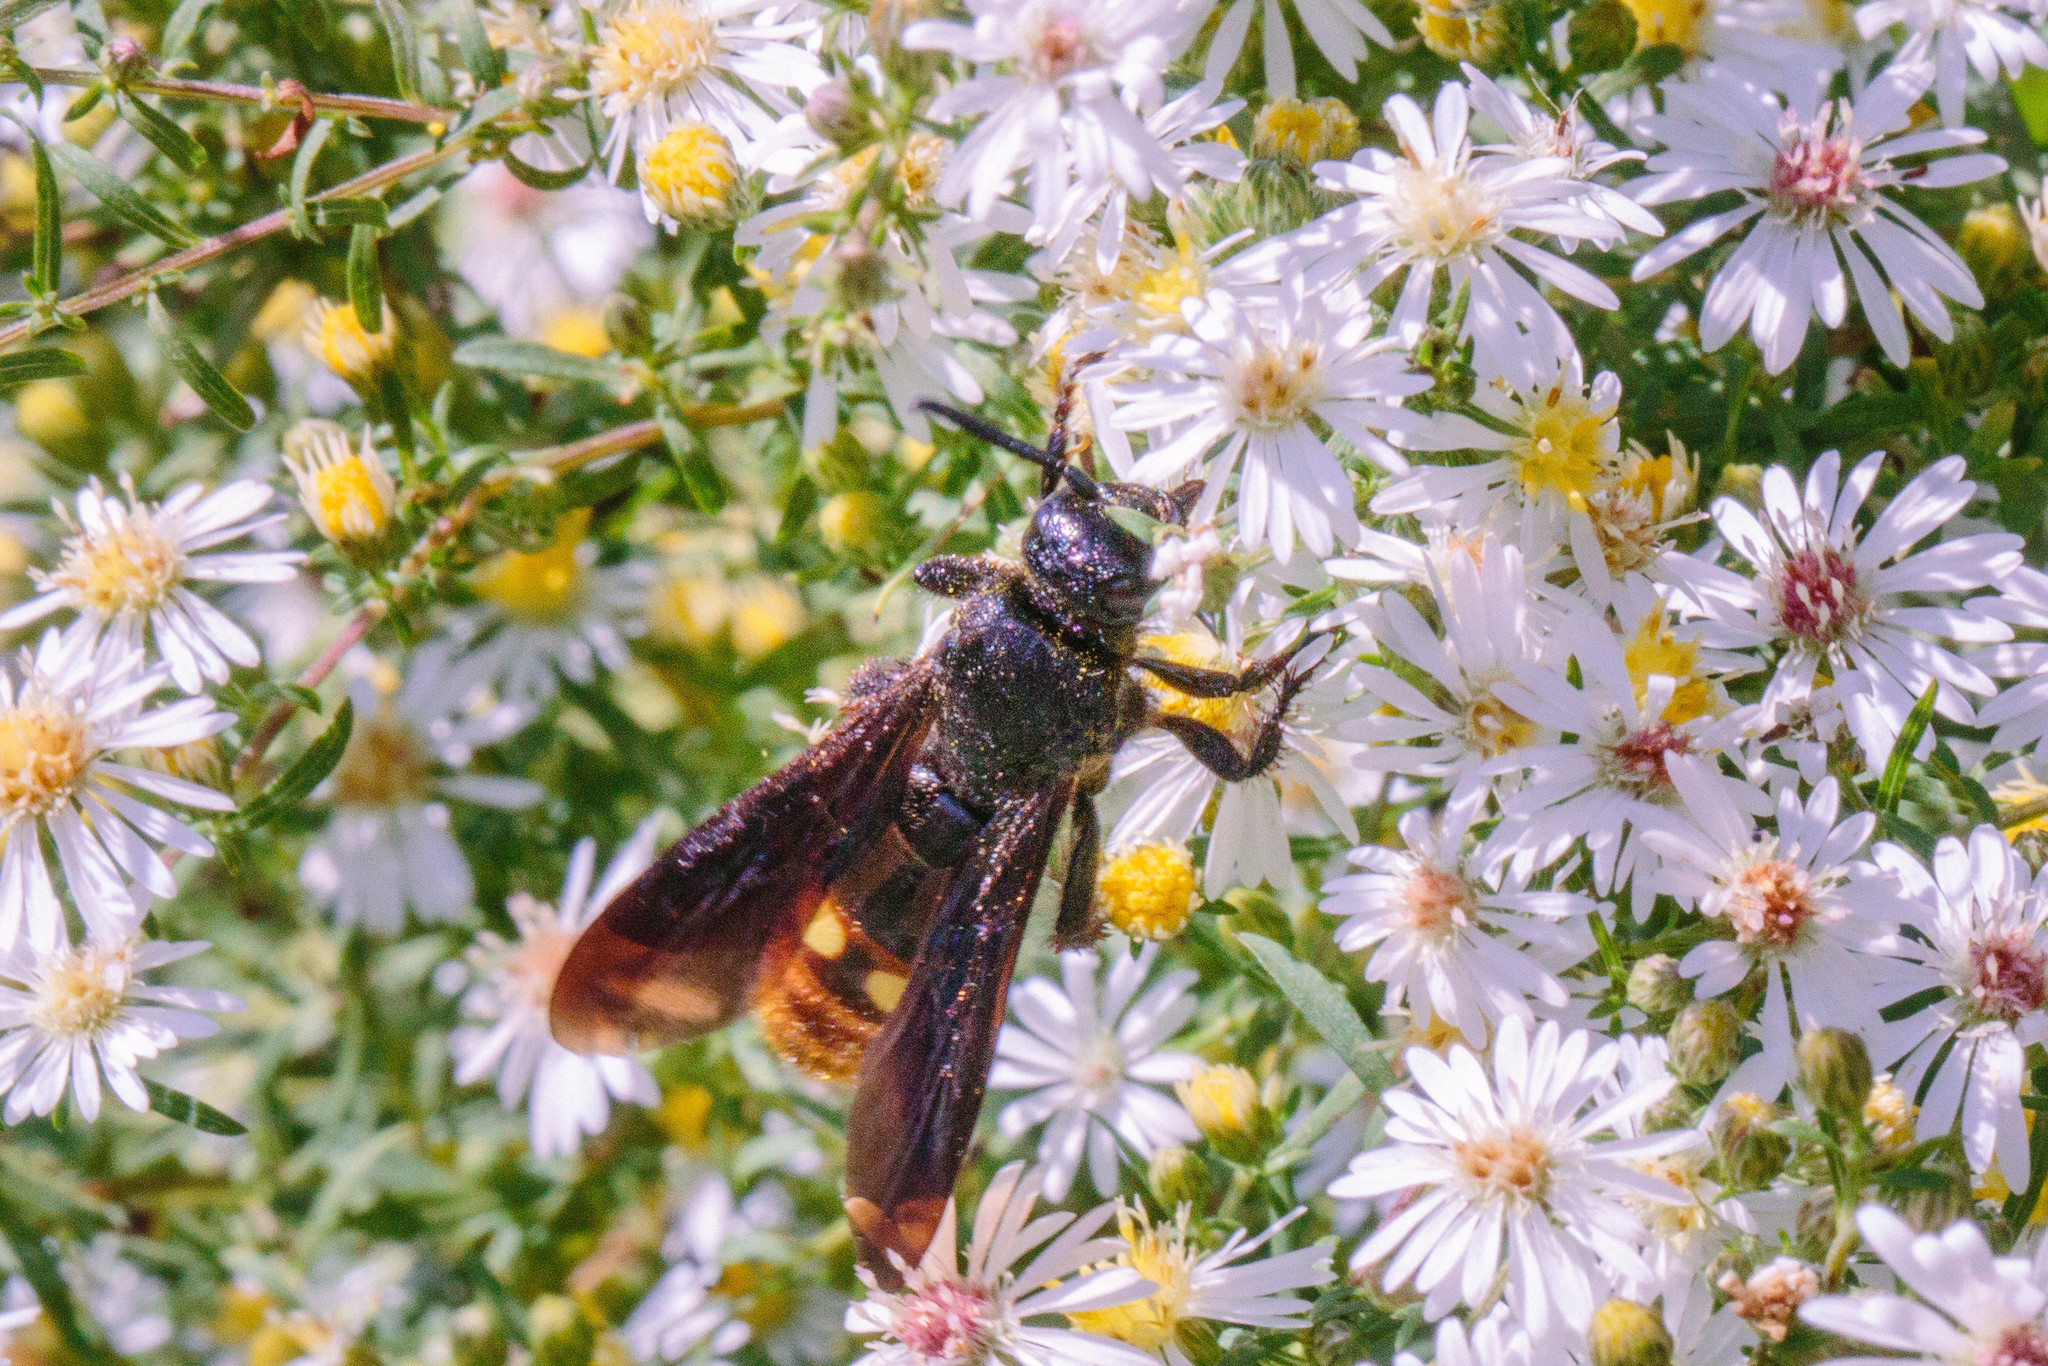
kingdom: Animalia
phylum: Arthropoda
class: Insecta
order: Hymenoptera
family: Scoliidae
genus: Scolia
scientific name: Scolia dubia
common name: Blue-winged scoliid wasp
